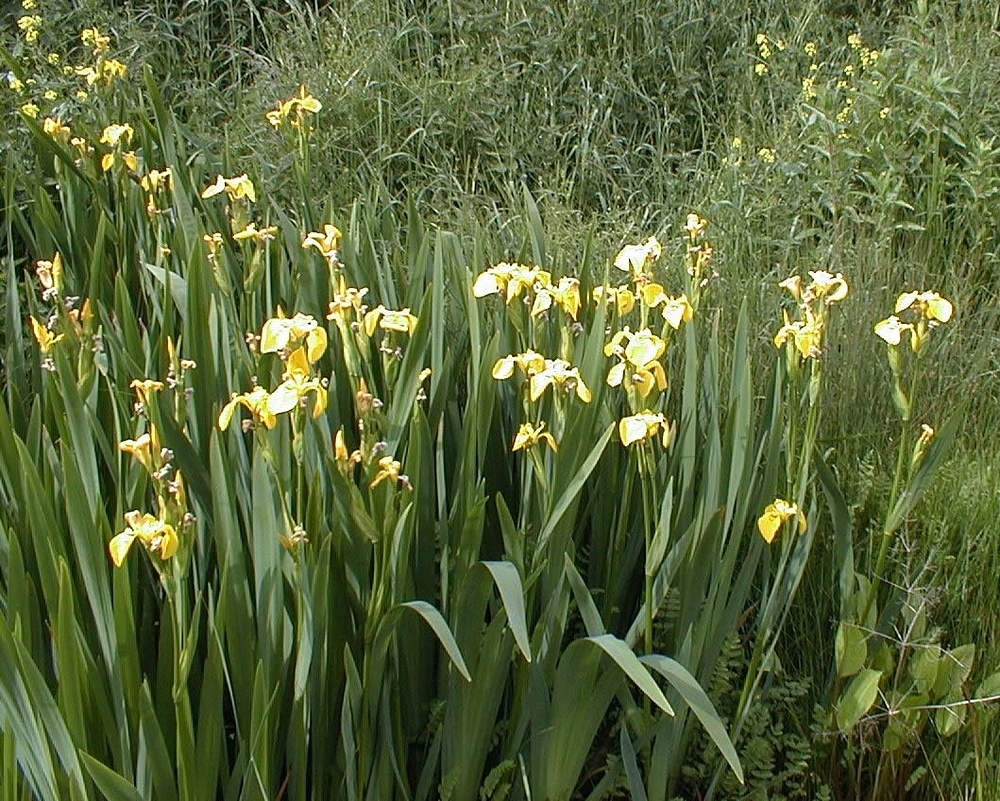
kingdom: Plantae
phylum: Tracheophyta
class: Liliopsida
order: Asparagales
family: Iridaceae
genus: Iris
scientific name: Iris pseudacorus
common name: Yellow flag
